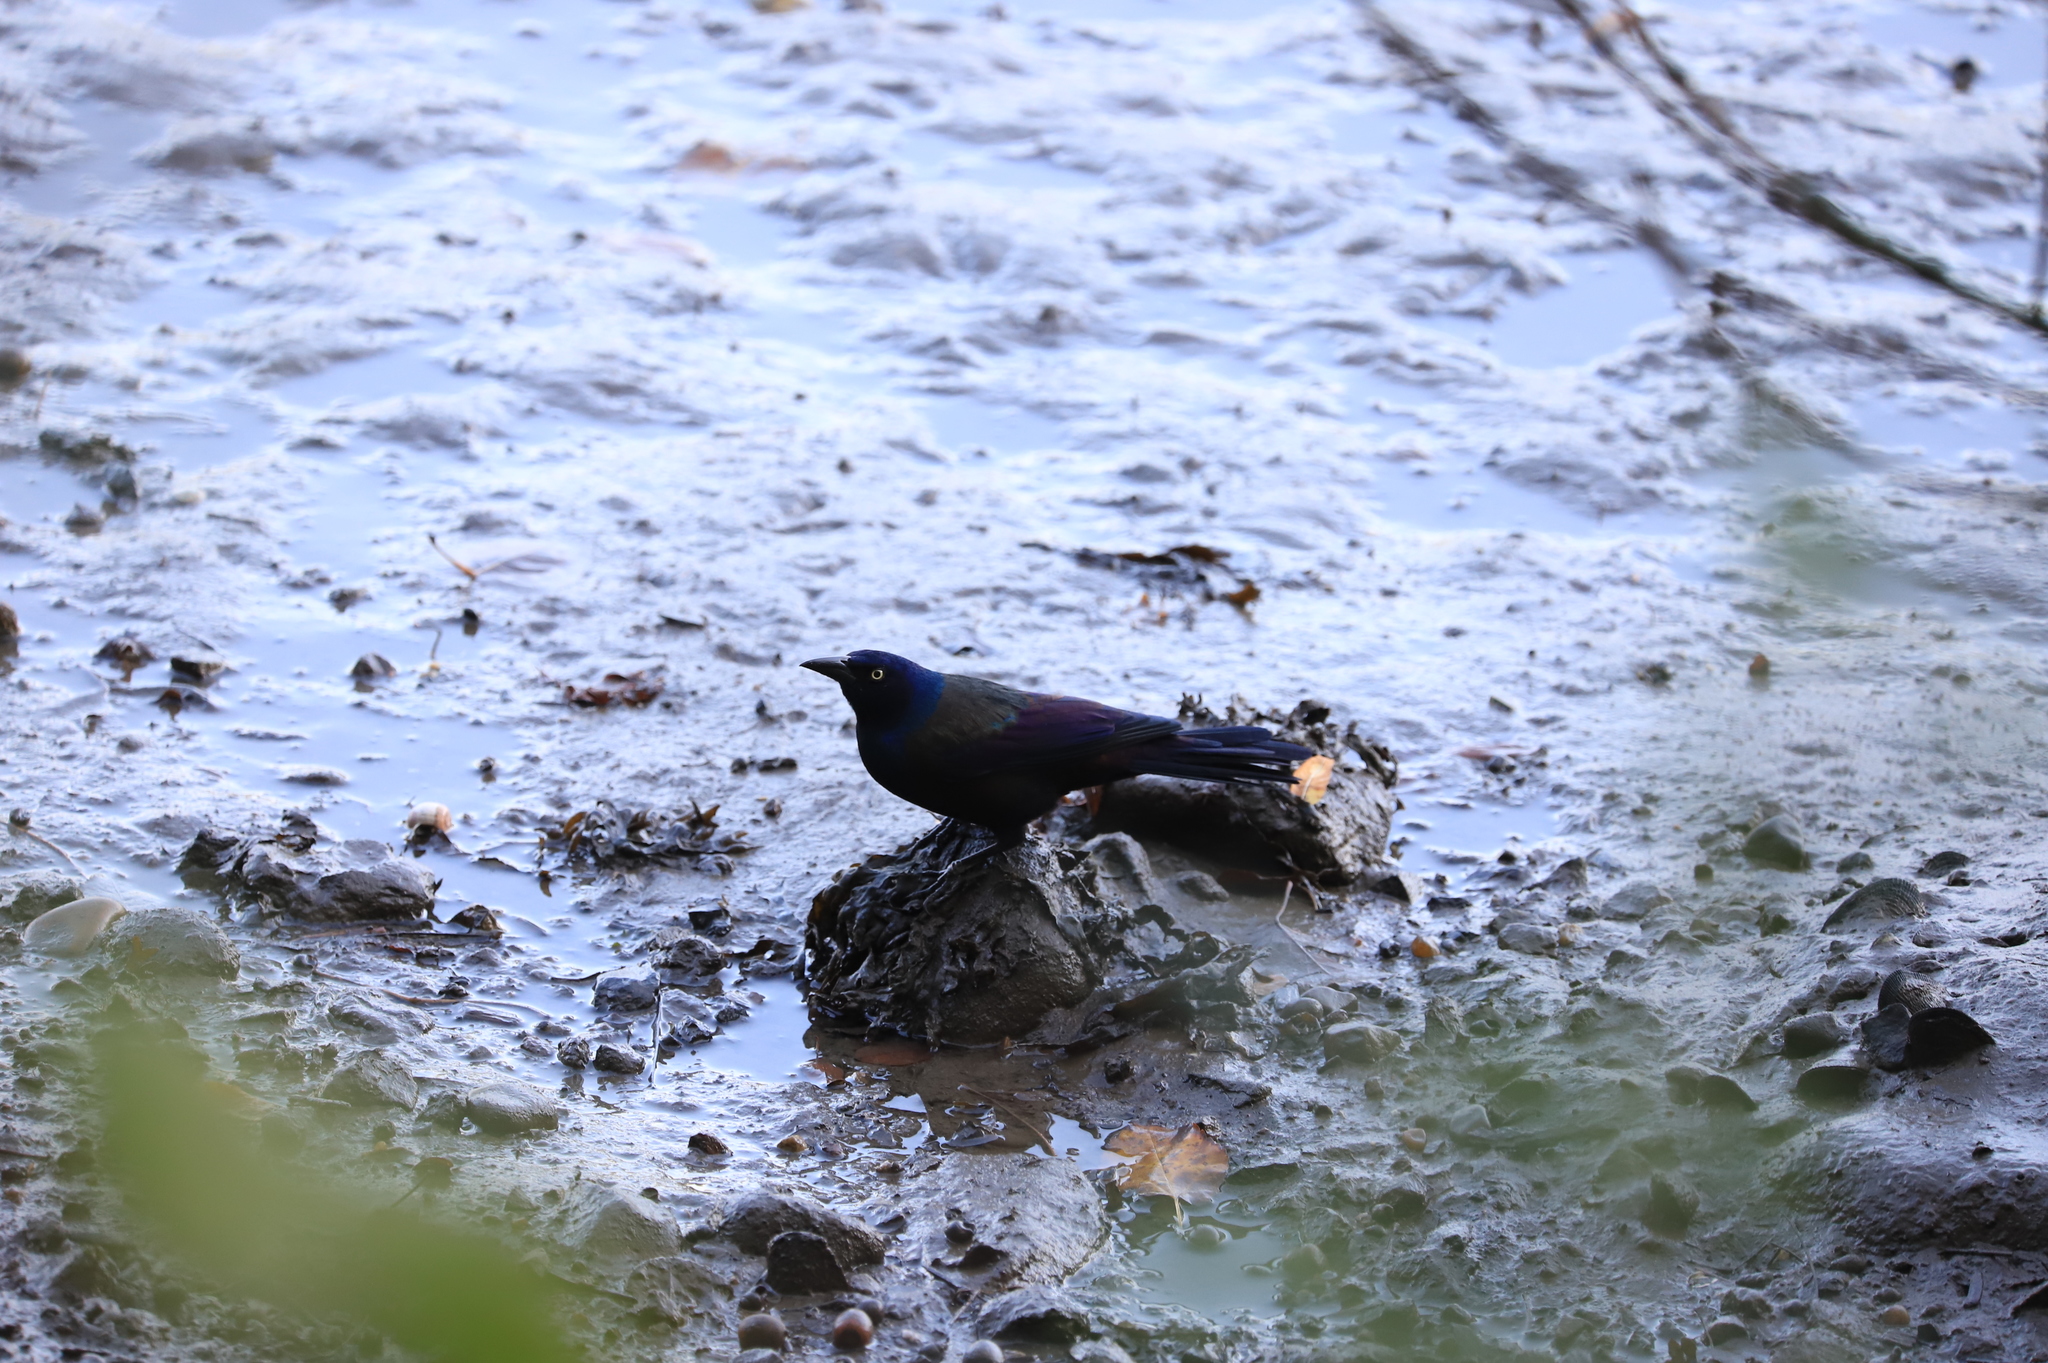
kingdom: Animalia
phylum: Chordata
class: Aves
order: Passeriformes
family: Icteridae
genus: Quiscalus
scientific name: Quiscalus quiscula
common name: Common grackle
